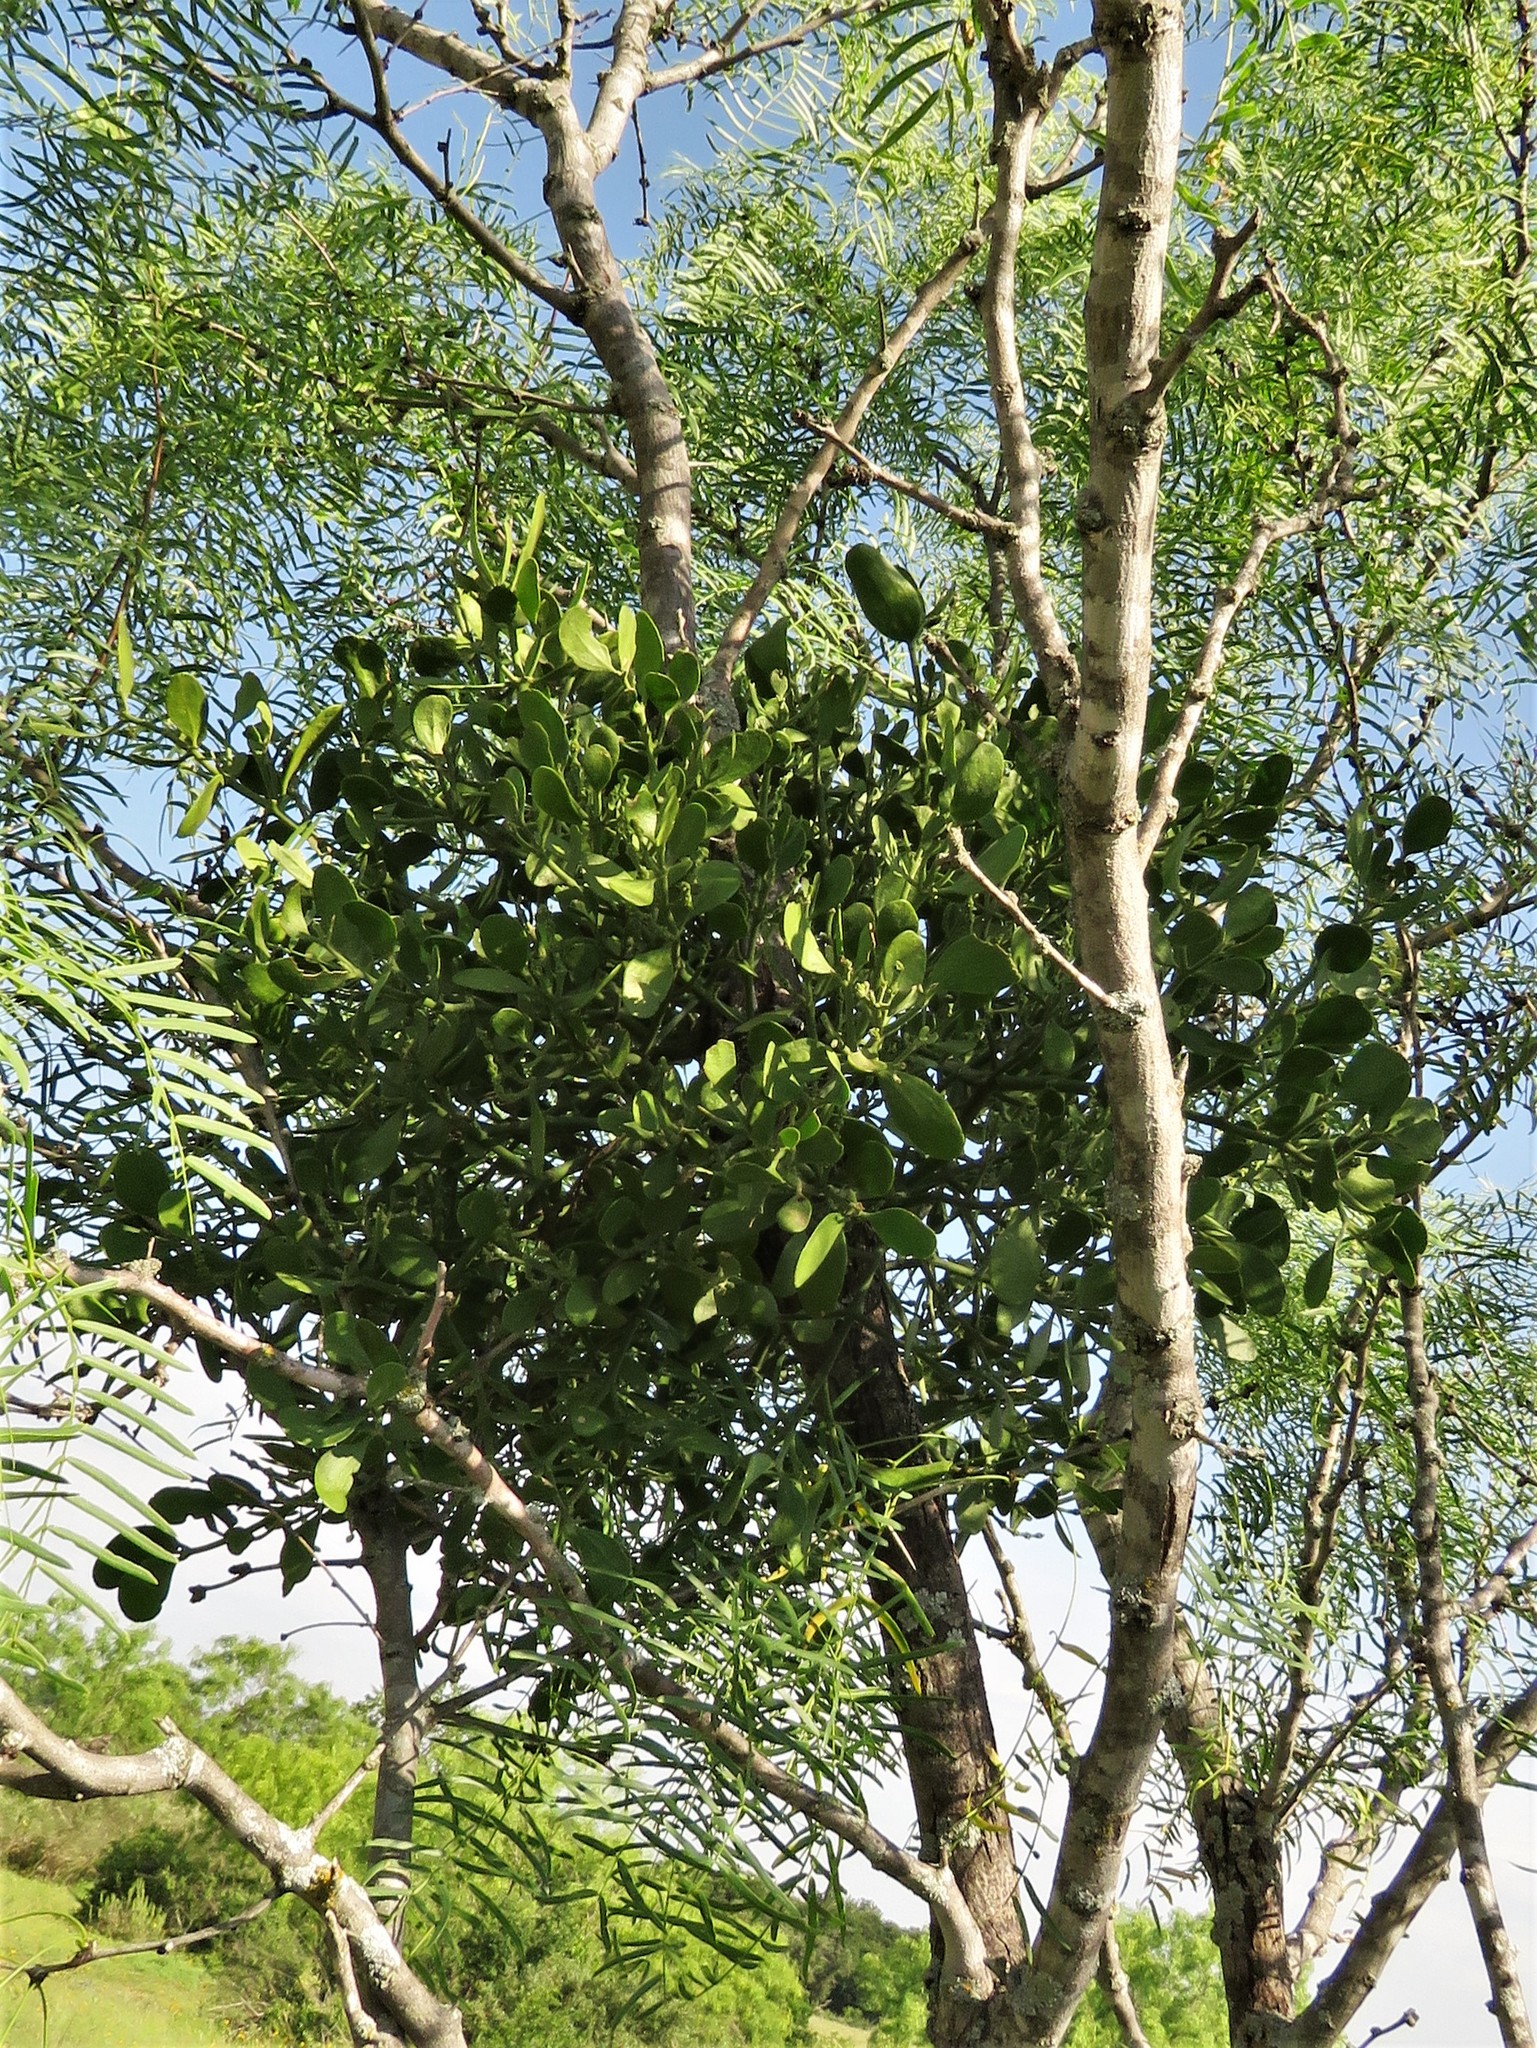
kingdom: Plantae
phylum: Tracheophyta
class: Magnoliopsida
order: Santalales
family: Viscaceae
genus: Phoradendron
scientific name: Phoradendron leucarpum
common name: Pacific mistletoe
